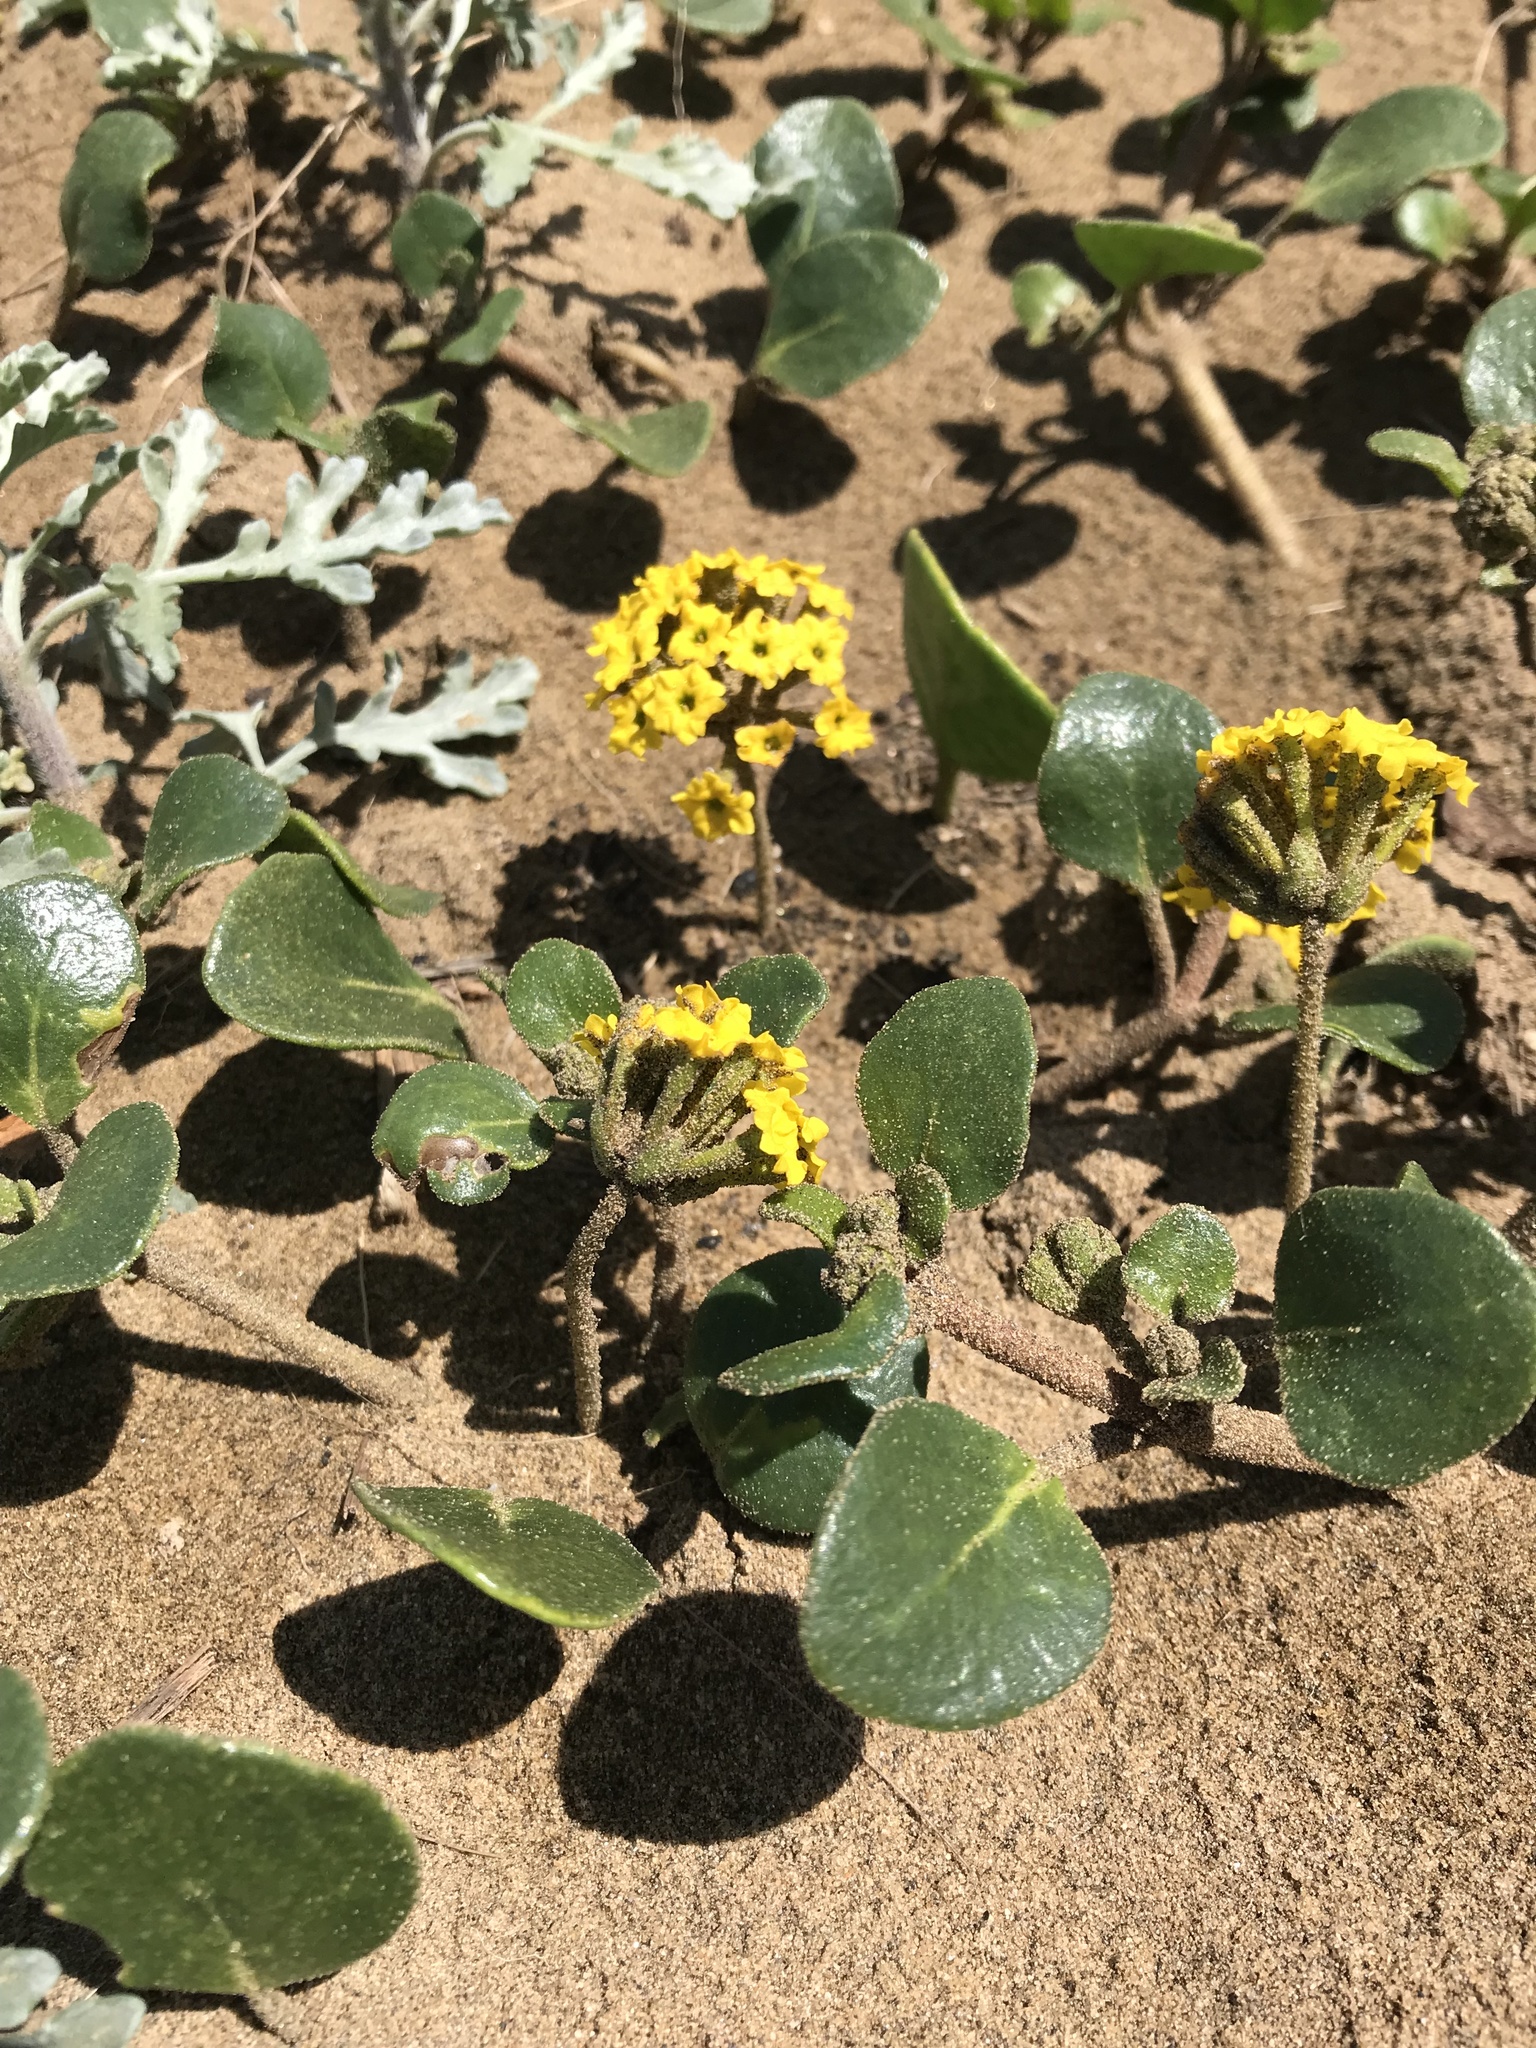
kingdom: Plantae
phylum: Tracheophyta
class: Magnoliopsida
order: Caryophyllales
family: Nyctaginaceae
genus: Abronia
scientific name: Abronia latifolia
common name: Yellow sand-verbena
